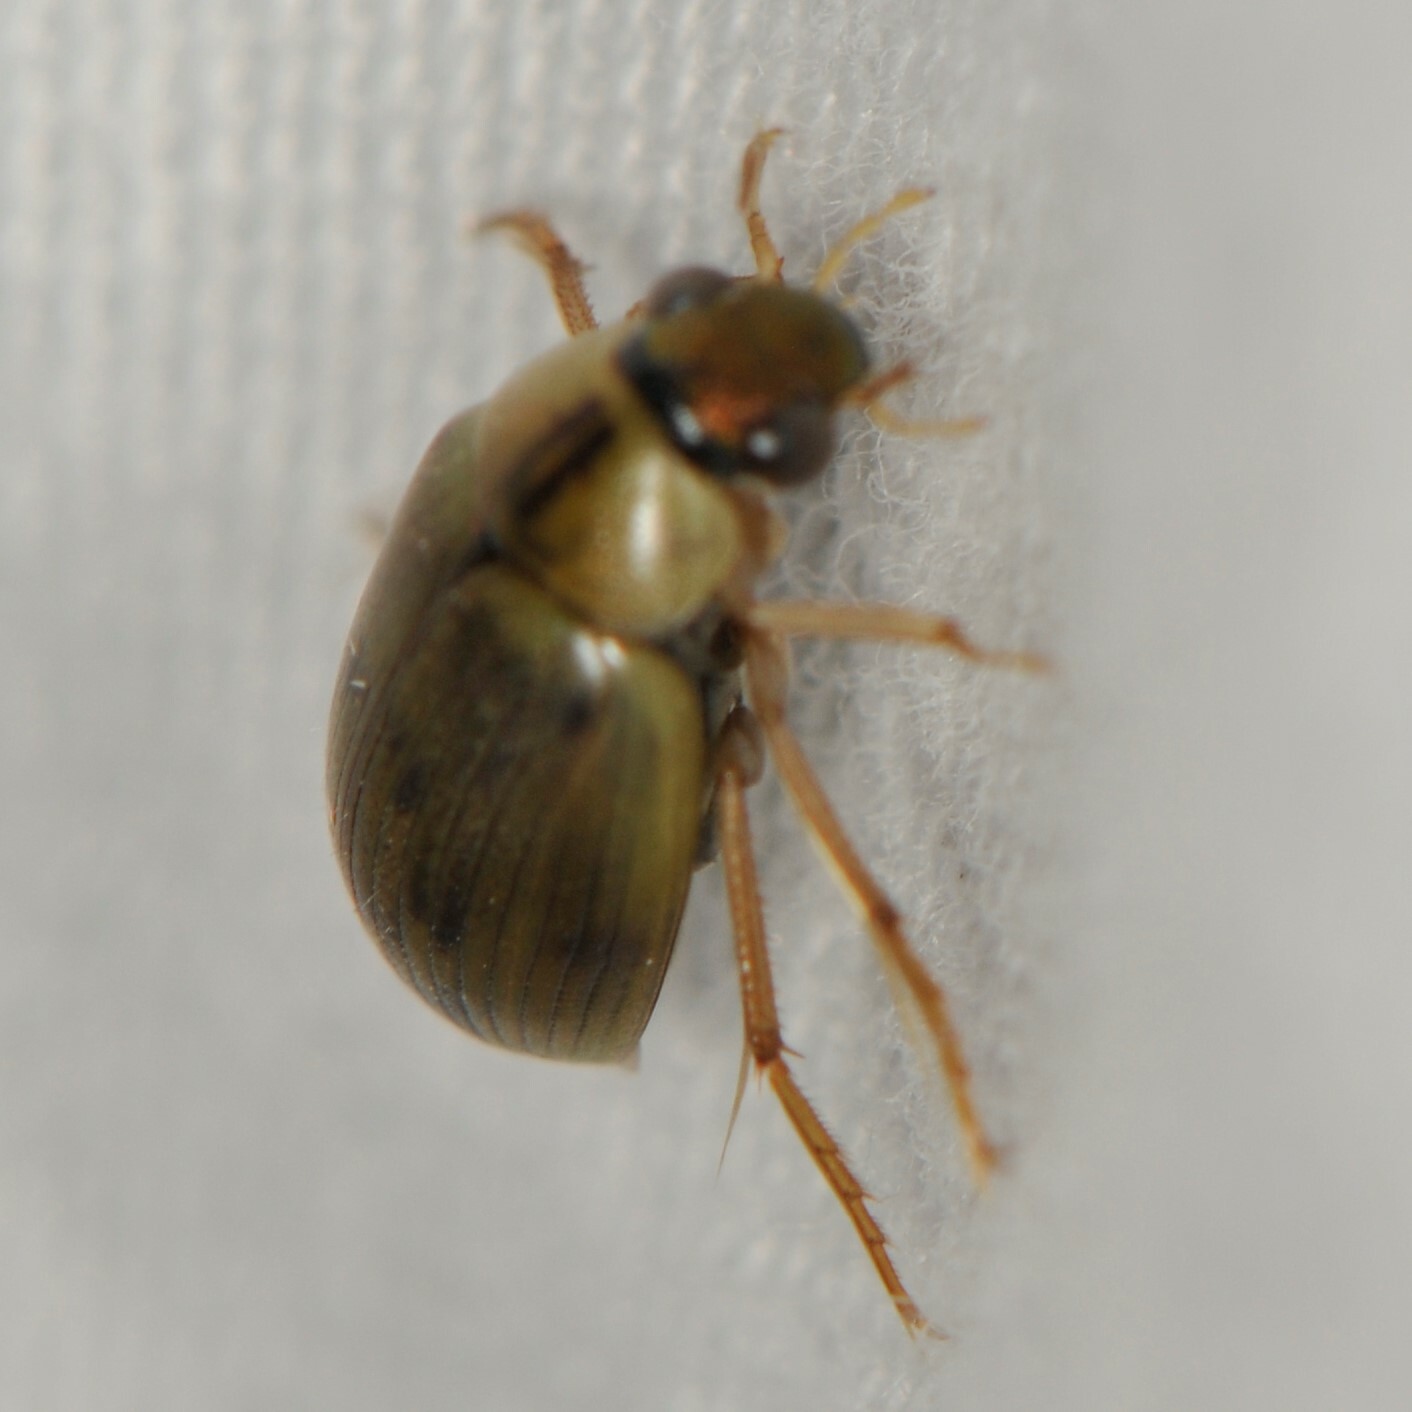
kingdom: Animalia
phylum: Arthropoda
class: Insecta
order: Coleoptera
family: Hydrophilidae
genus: Berosus
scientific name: Berosus
